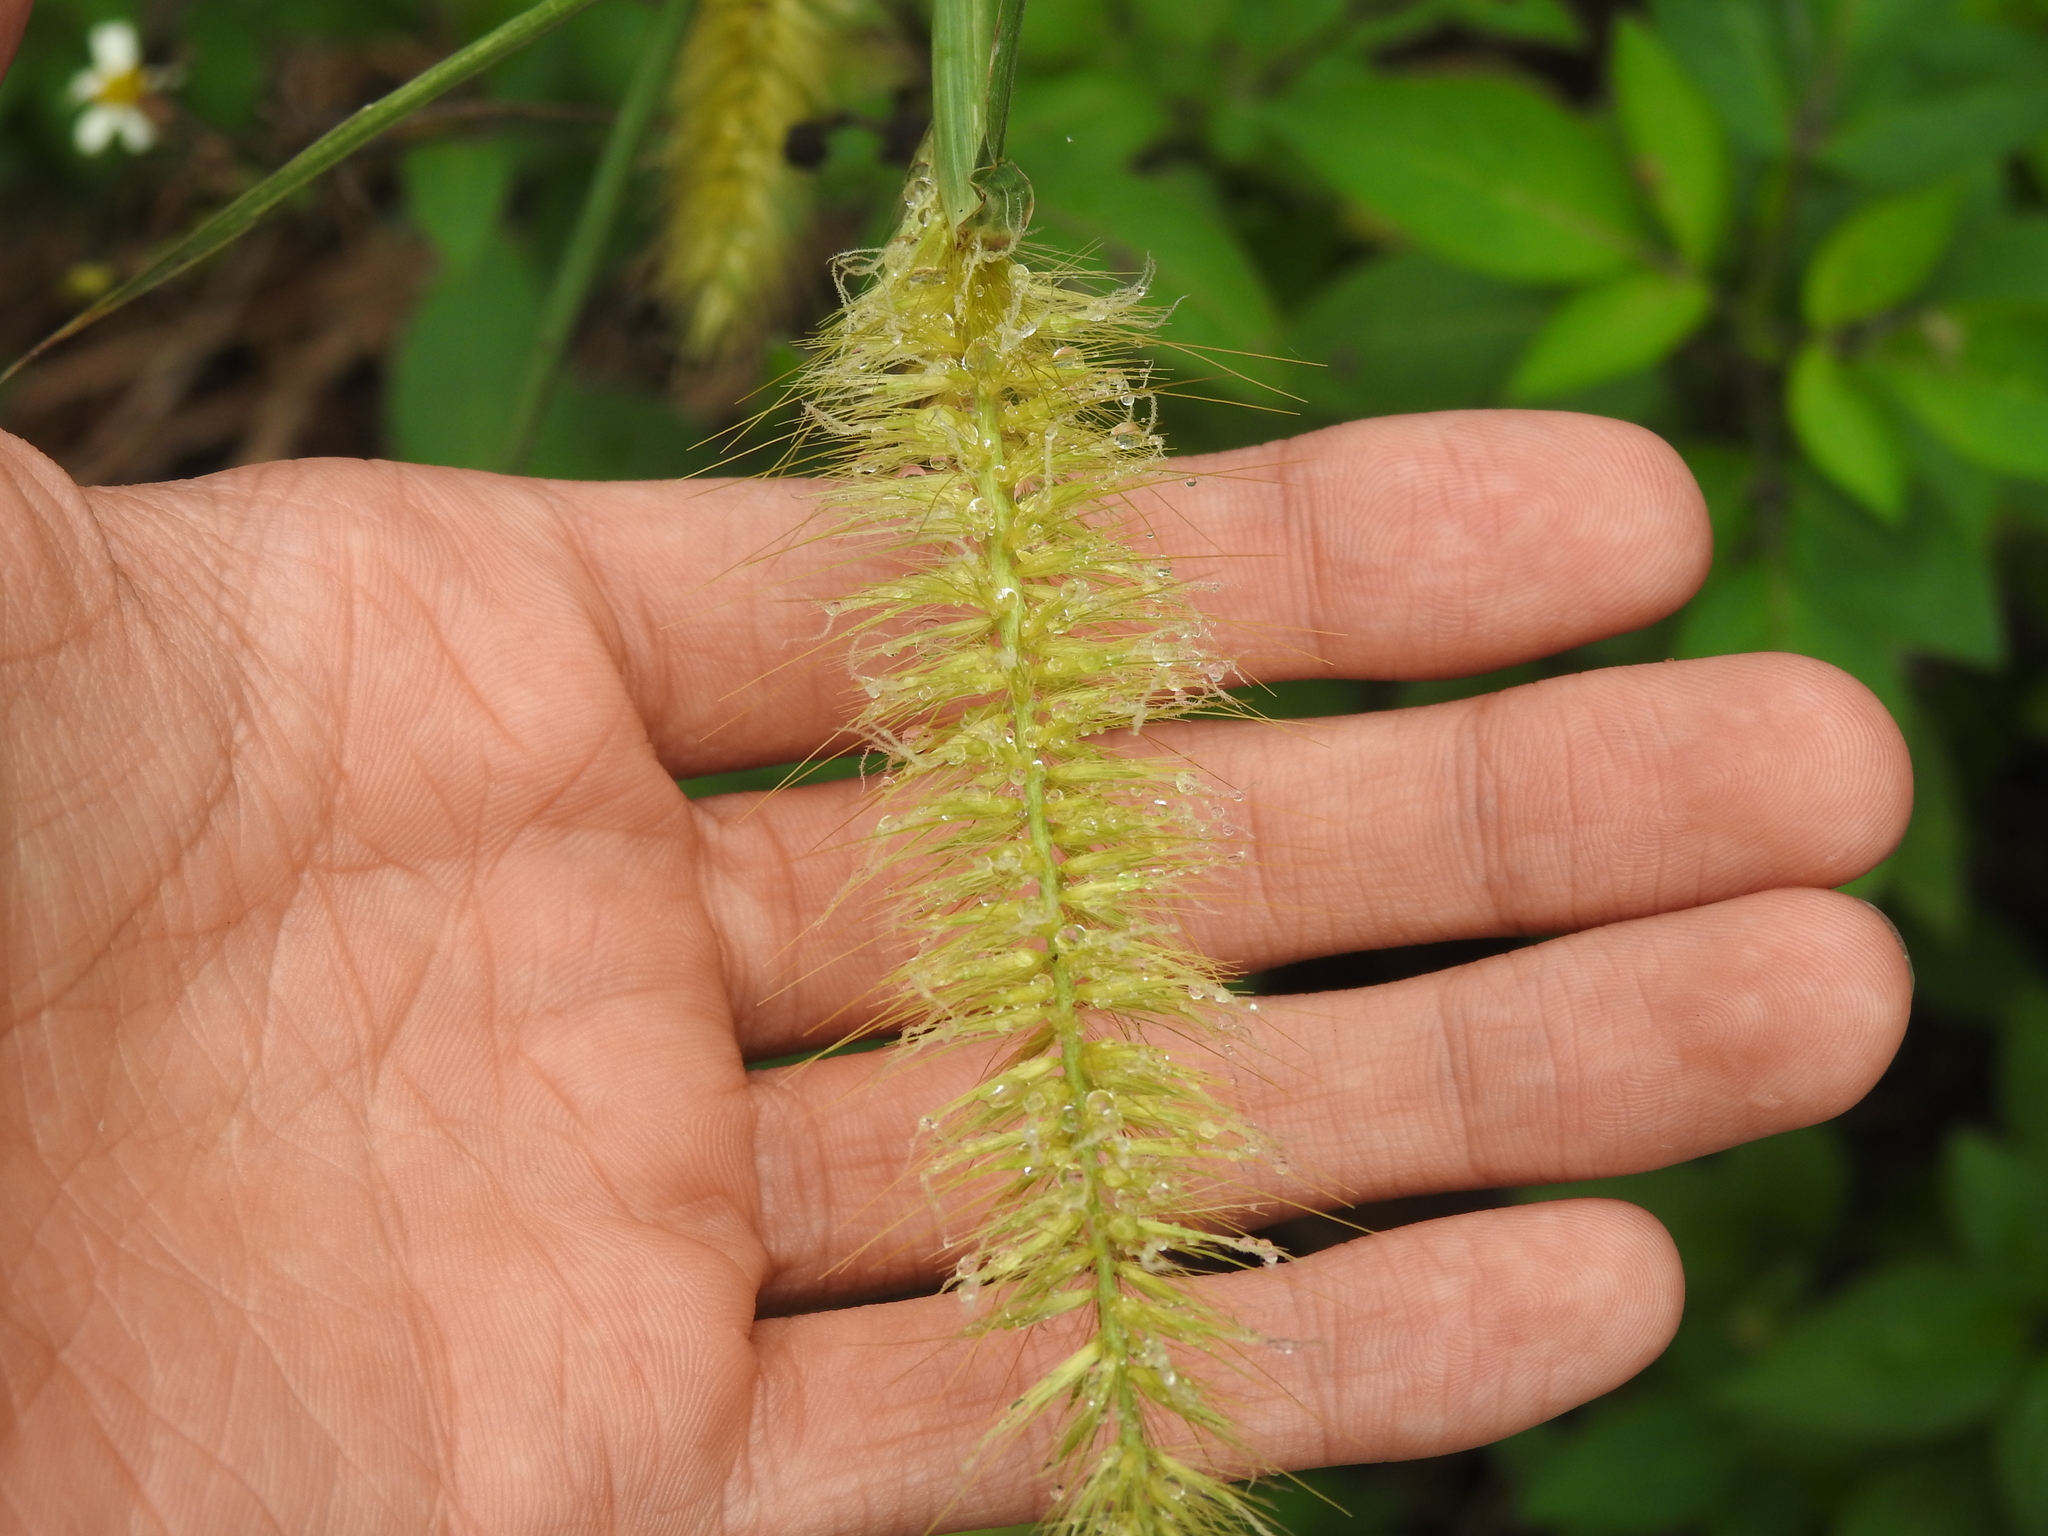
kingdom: Plantae
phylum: Tracheophyta
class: Liliopsida
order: Poales
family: Poaceae
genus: Cenchrus
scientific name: Cenchrus purpureus
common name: Elephant grass
